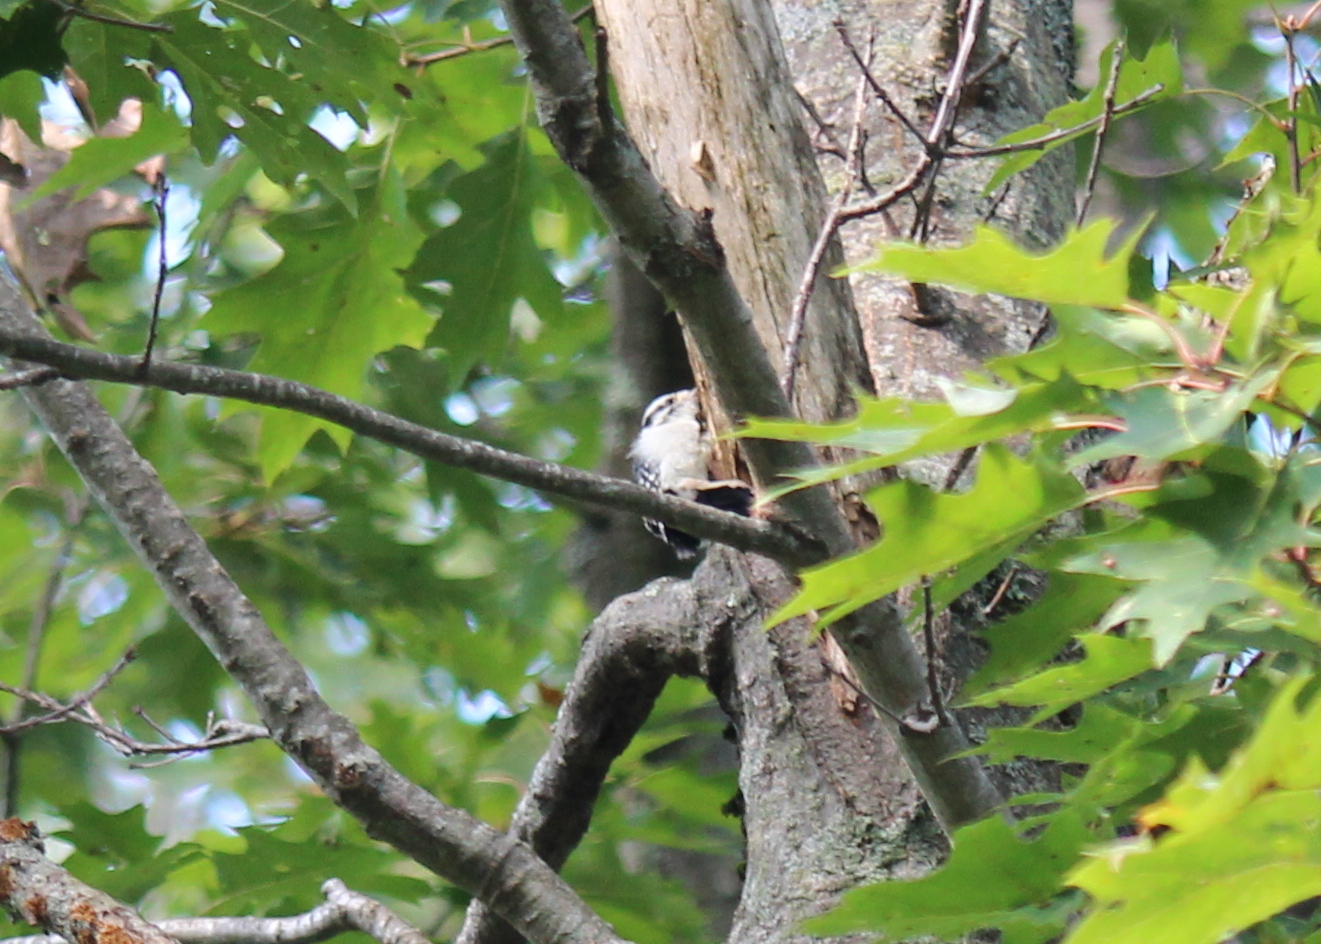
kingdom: Animalia
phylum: Chordata
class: Aves
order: Piciformes
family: Picidae
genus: Dryobates
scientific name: Dryobates pubescens
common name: Downy woodpecker
